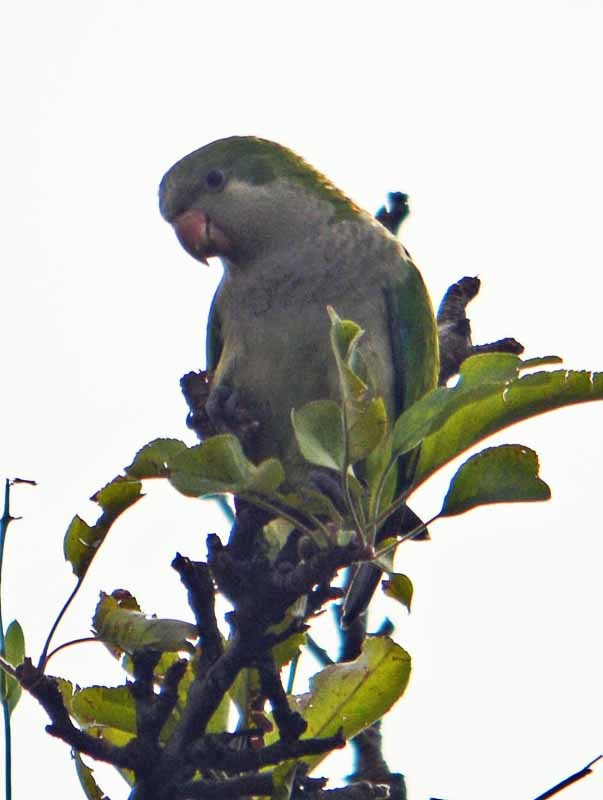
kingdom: Animalia
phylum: Chordata
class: Aves
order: Psittaciformes
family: Psittacidae
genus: Myiopsitta
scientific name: Myiopsitta monachus
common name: Monk parakeet
